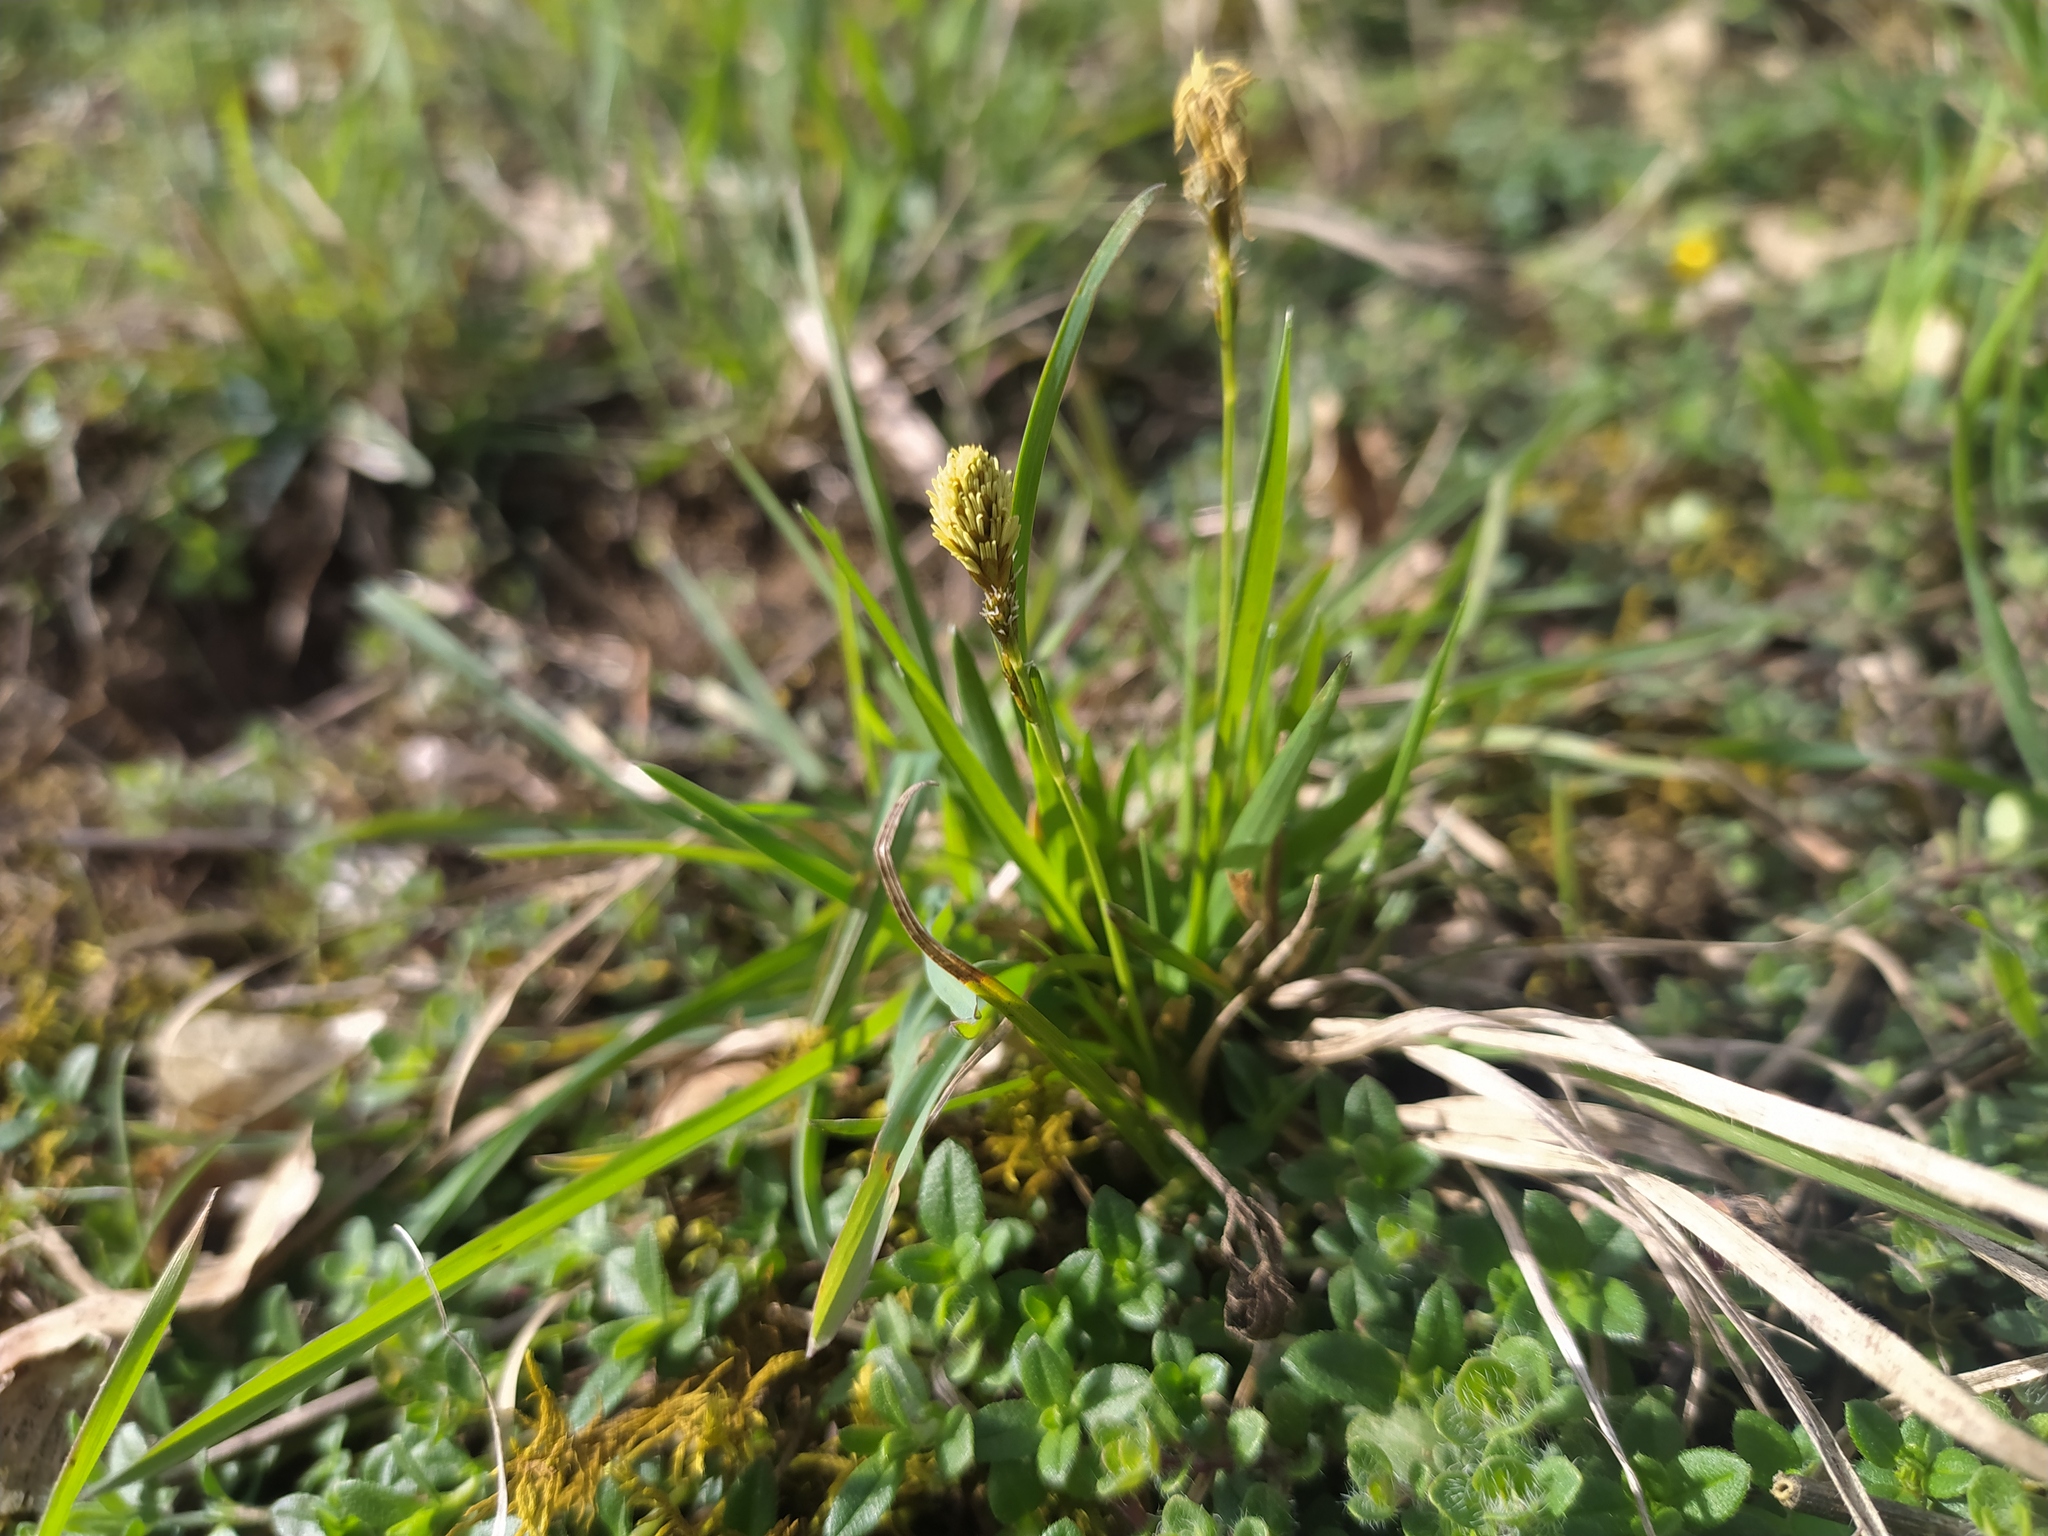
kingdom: Plantae
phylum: Tracheophyta
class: Liliopsida
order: Poales
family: Cyperaceae
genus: Carex
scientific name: Carex caryophyllea
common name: Spring sedge
